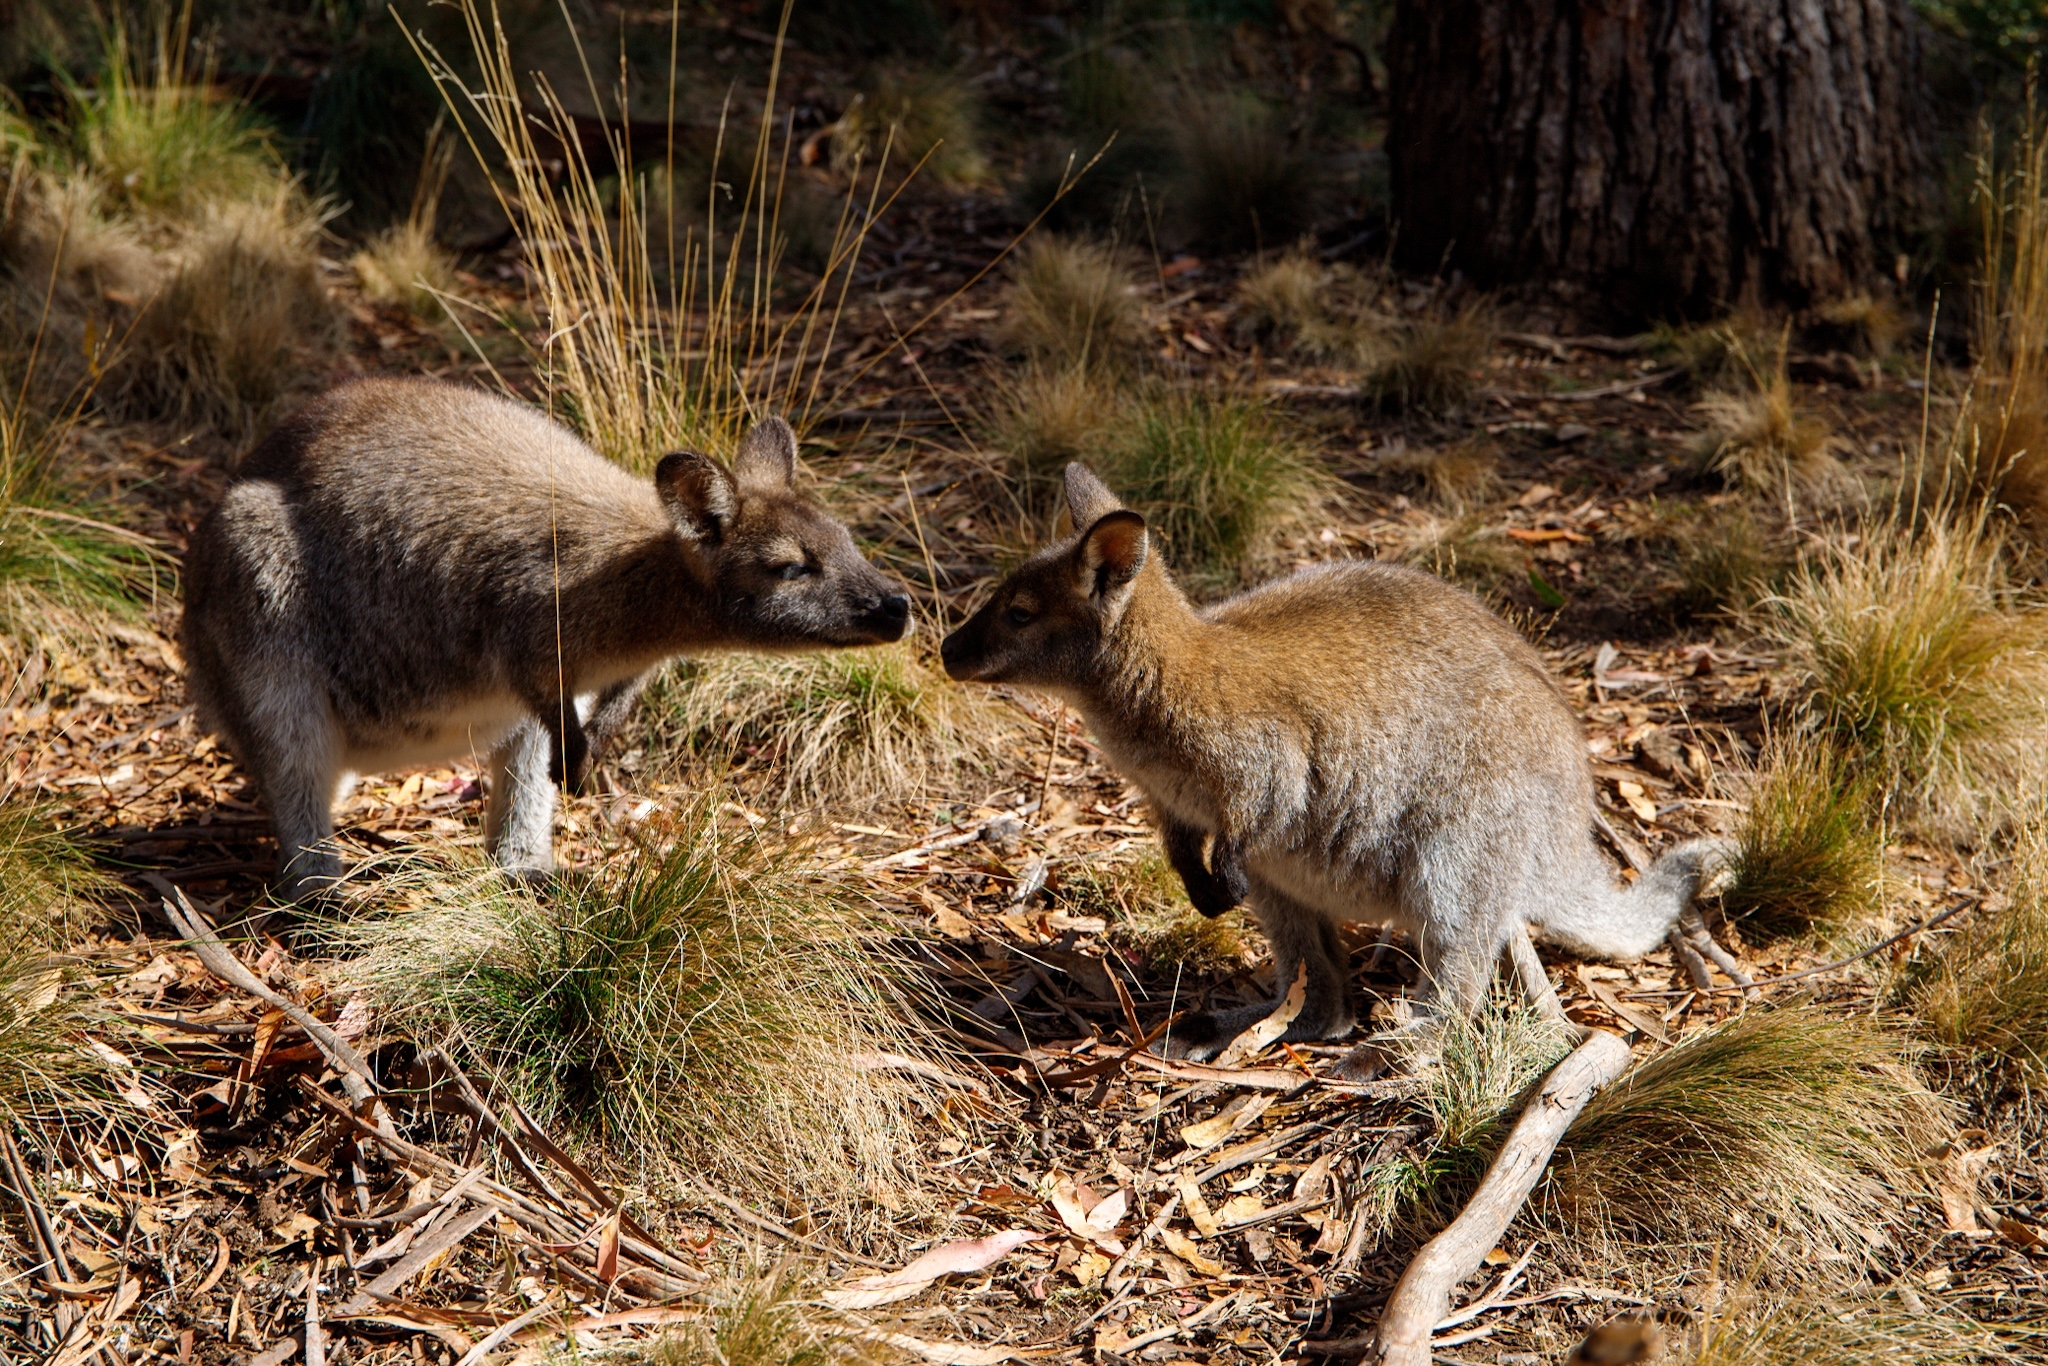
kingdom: Animalia
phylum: Chordata
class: Mammalia
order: Diprotodontia
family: Macropodidae
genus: Notamacropus
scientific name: Notamacropus rufogriseus
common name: Red-necked wallaby
